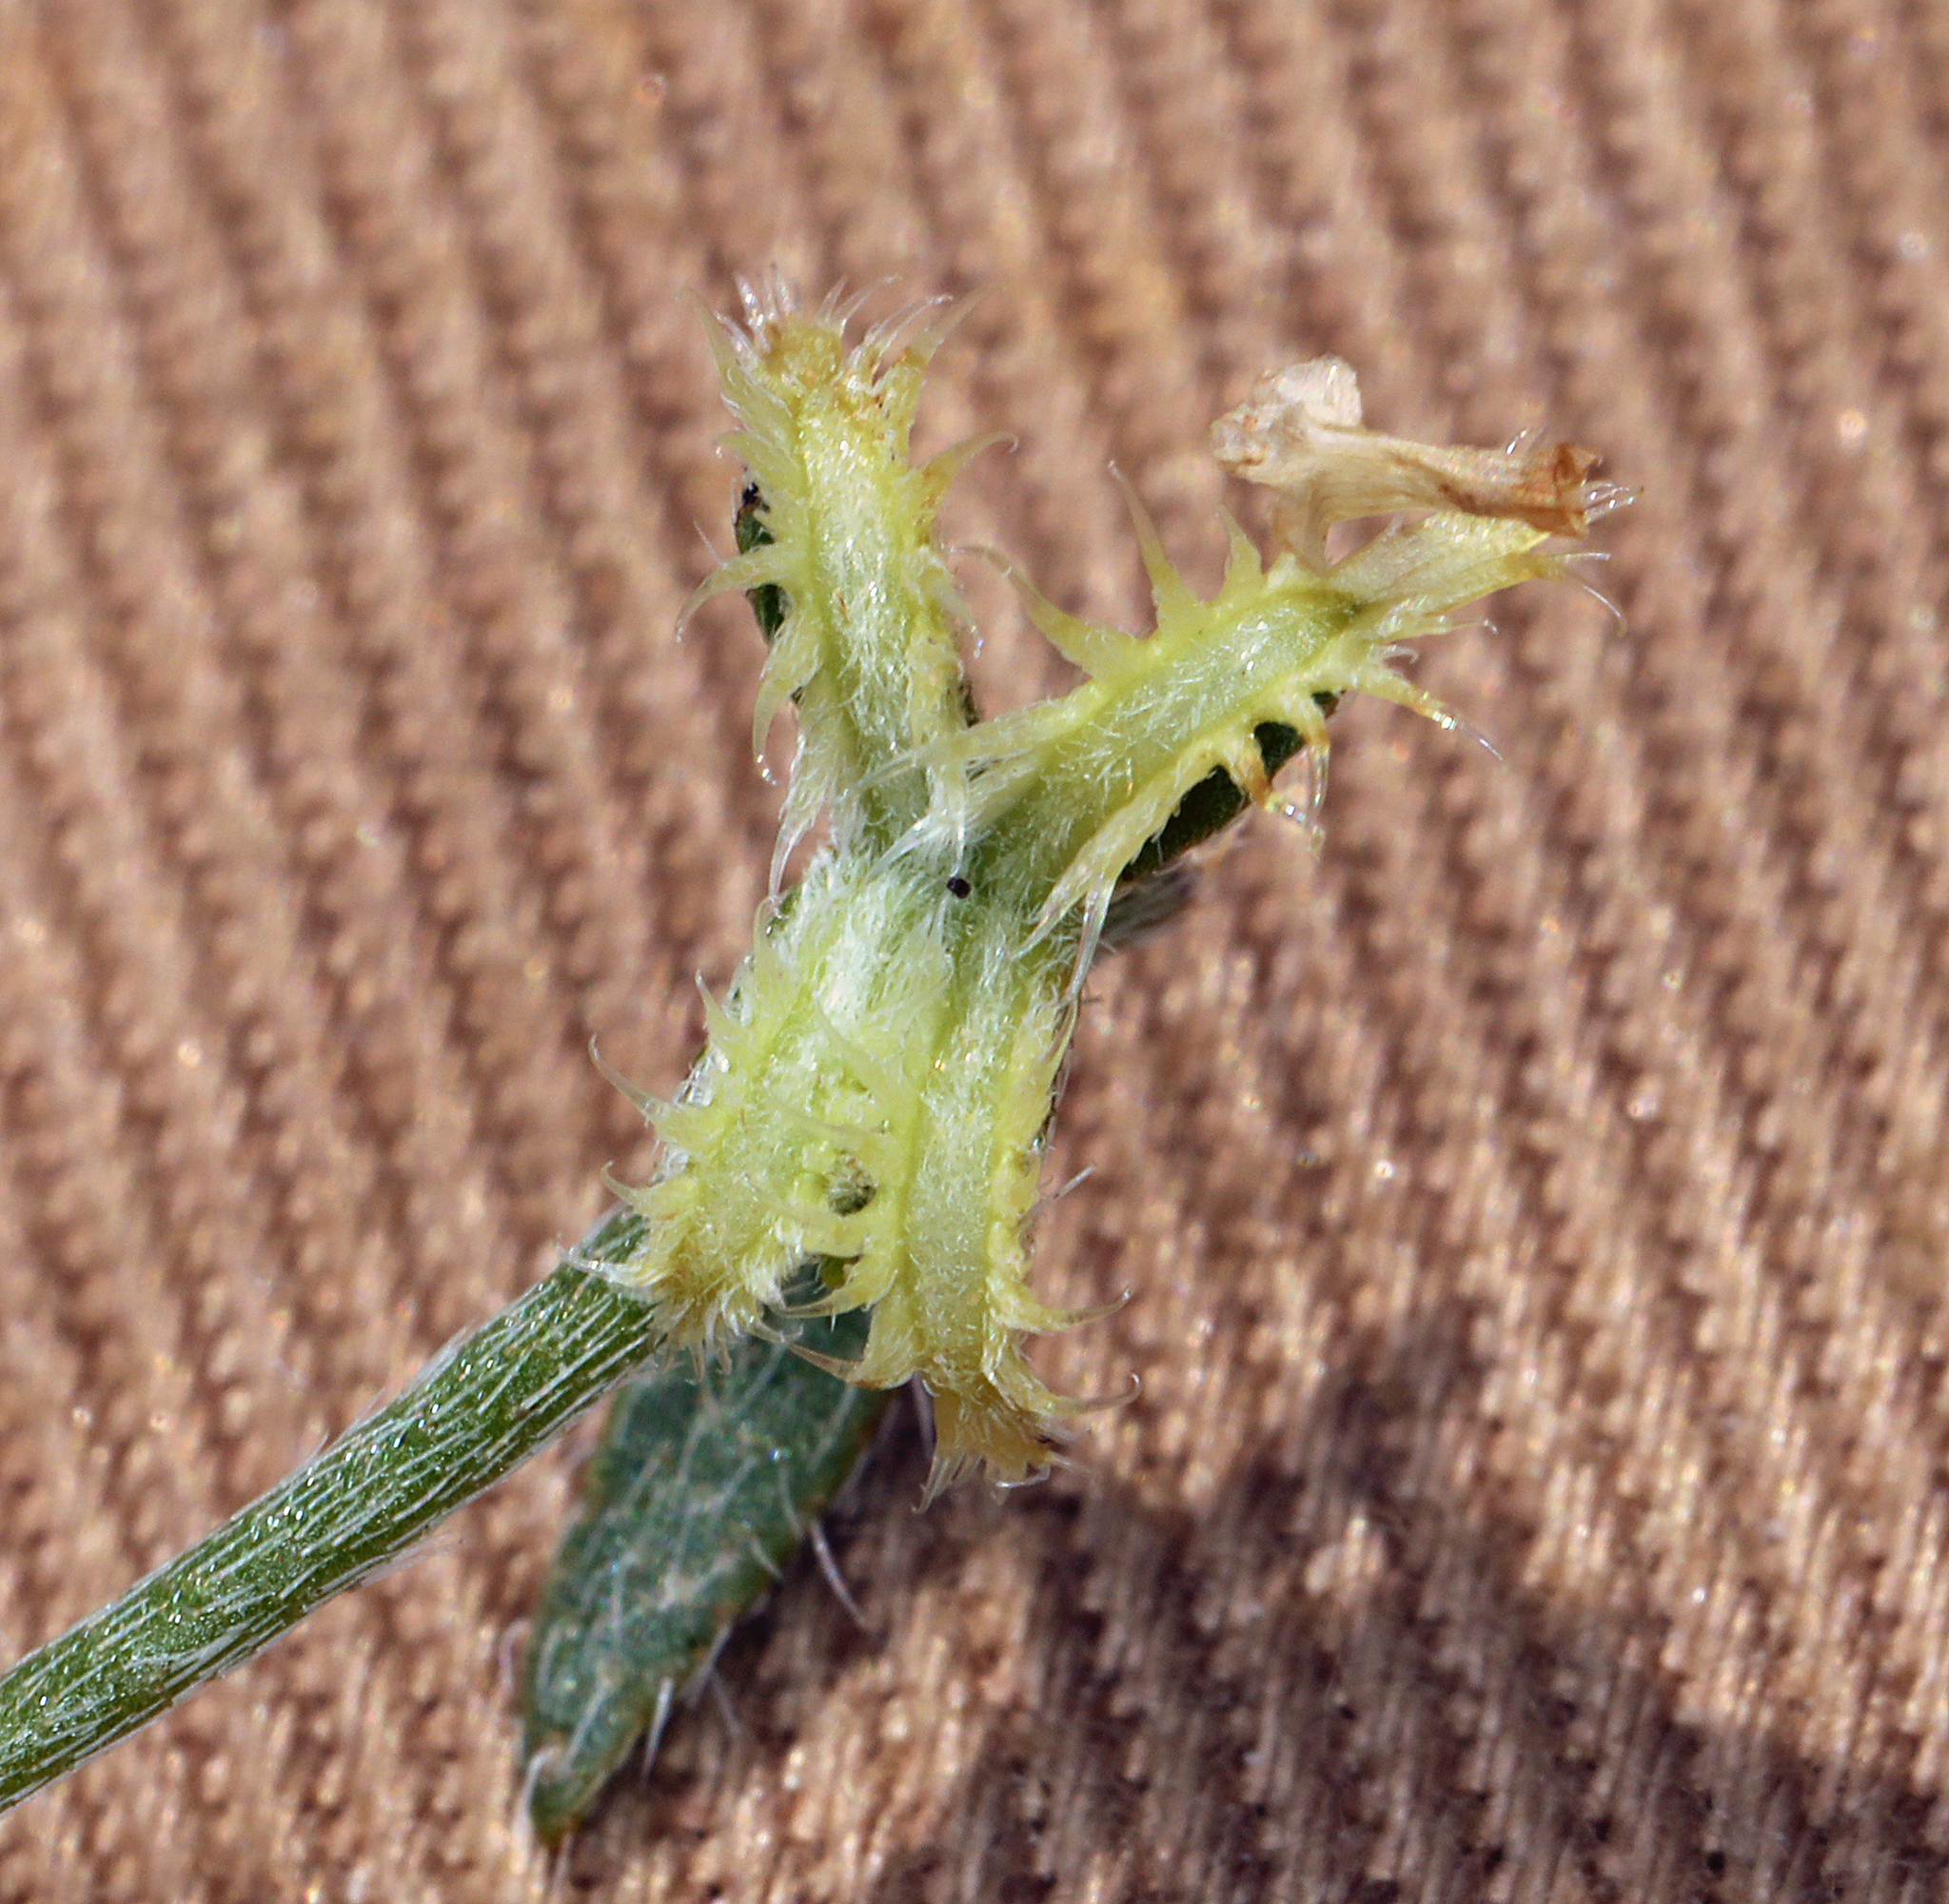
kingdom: Plantae
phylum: Tracheophyta
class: Magnoliopsida
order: Boraginales
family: Boraginaceae
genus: Pectocarya
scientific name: Pectocarya recurvata
